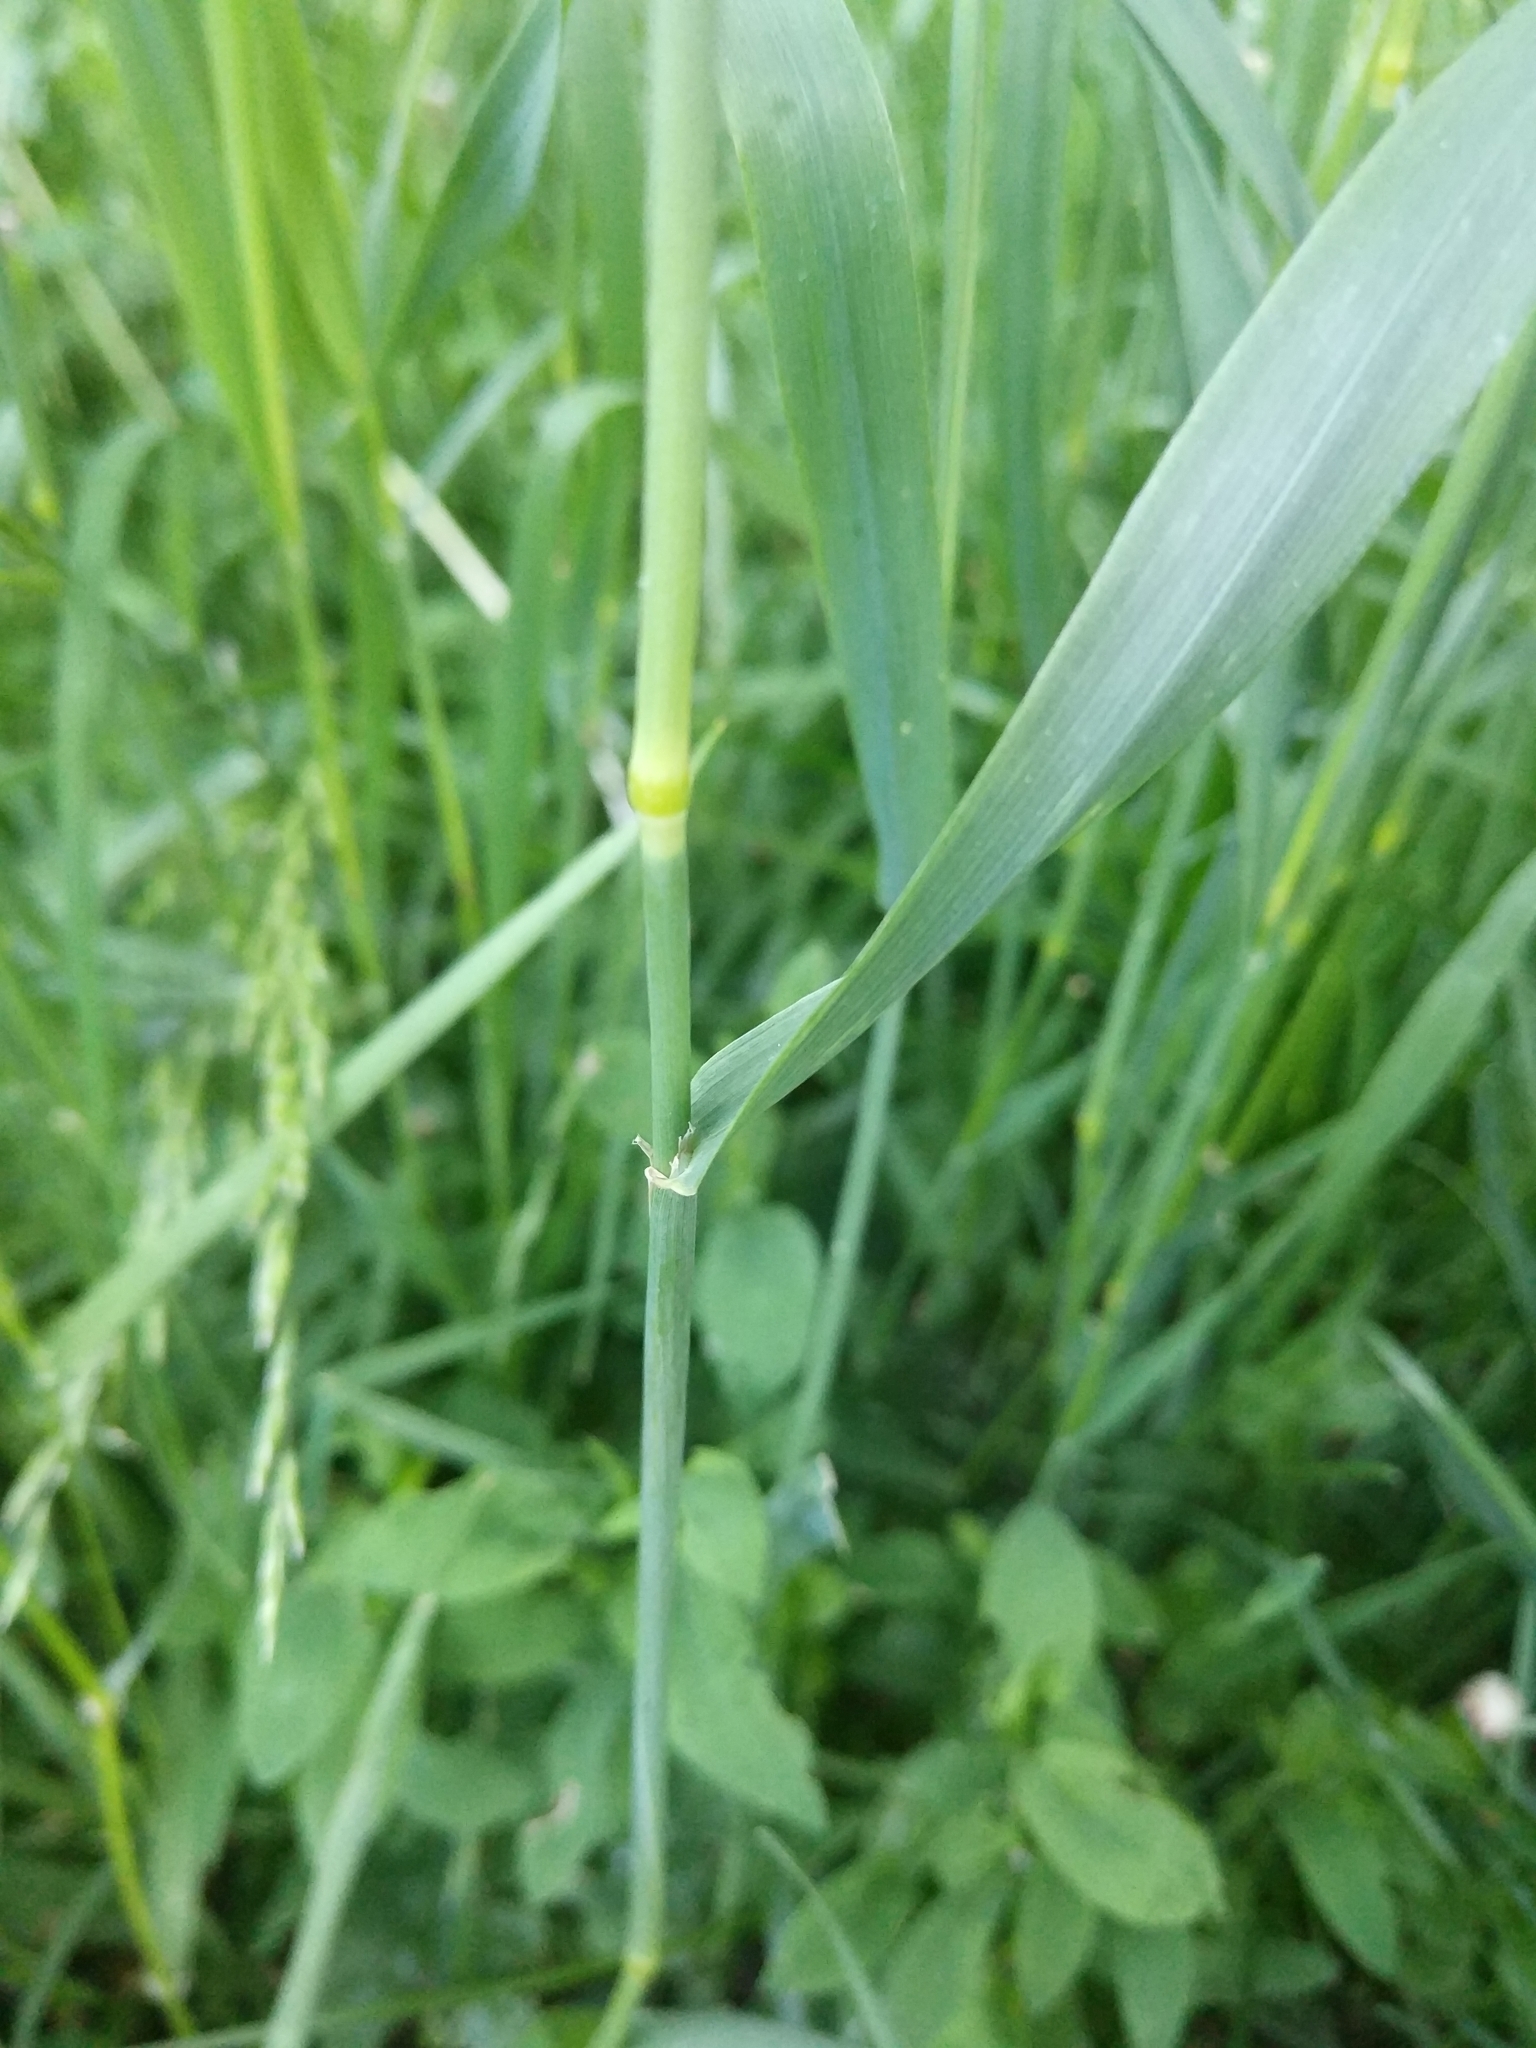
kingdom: Plantae
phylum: Tracheophyta
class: Liliopsida
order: Poales
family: Poaceae
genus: Phleum
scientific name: Phleum pratense
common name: Timothy grass
